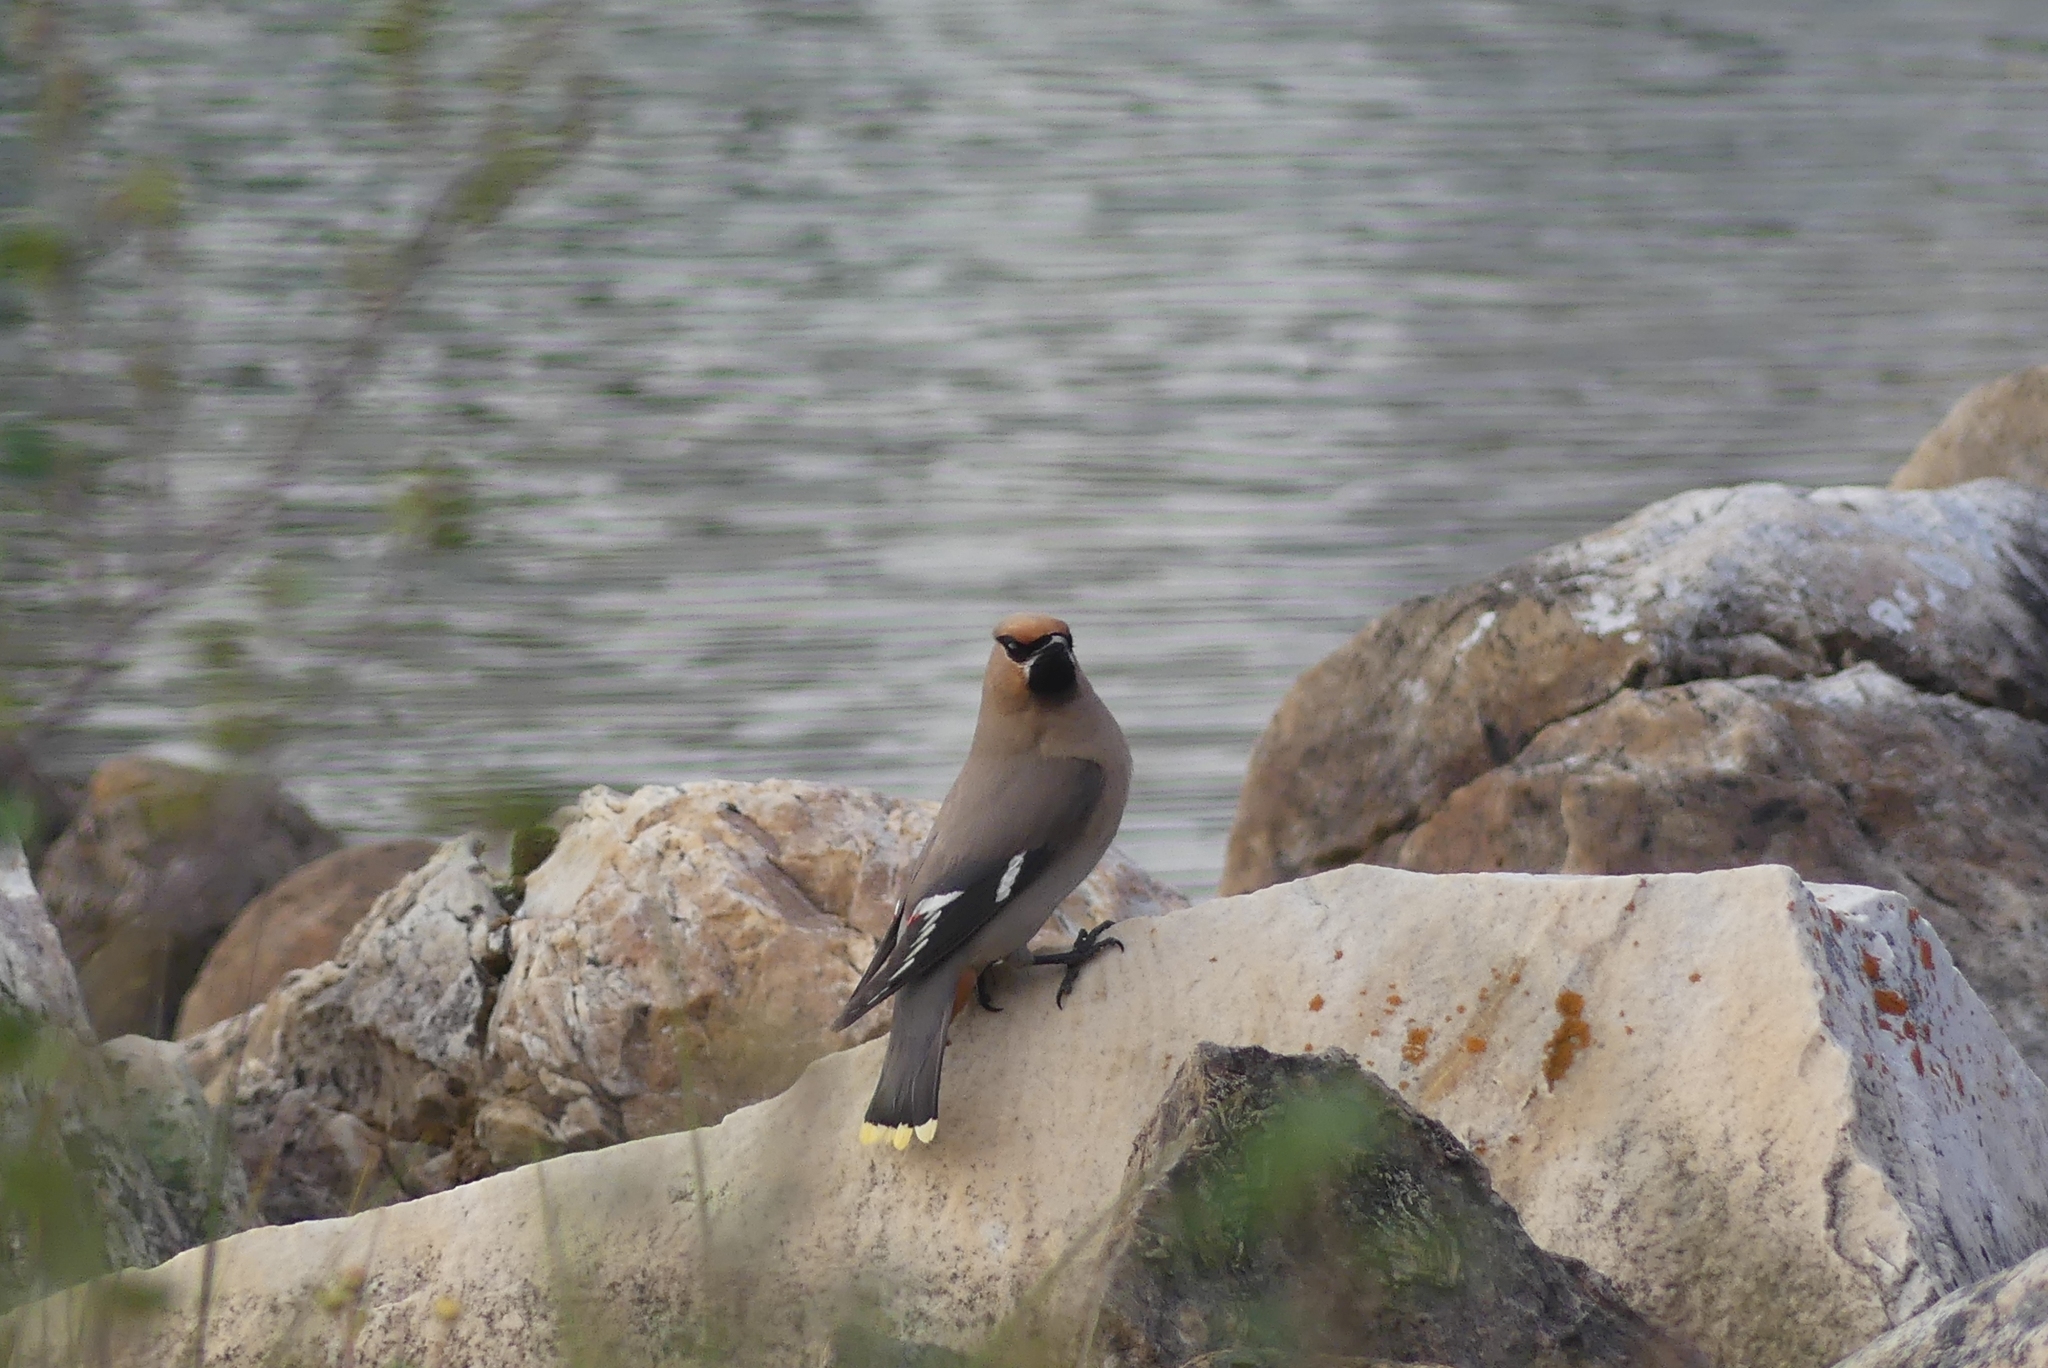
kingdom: Animalia
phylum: Chordata
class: Aves
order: Passeriformes
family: Bombycillidae
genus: Bombycilla
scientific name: Bombycilla garrulus
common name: Bohemian waxwing
